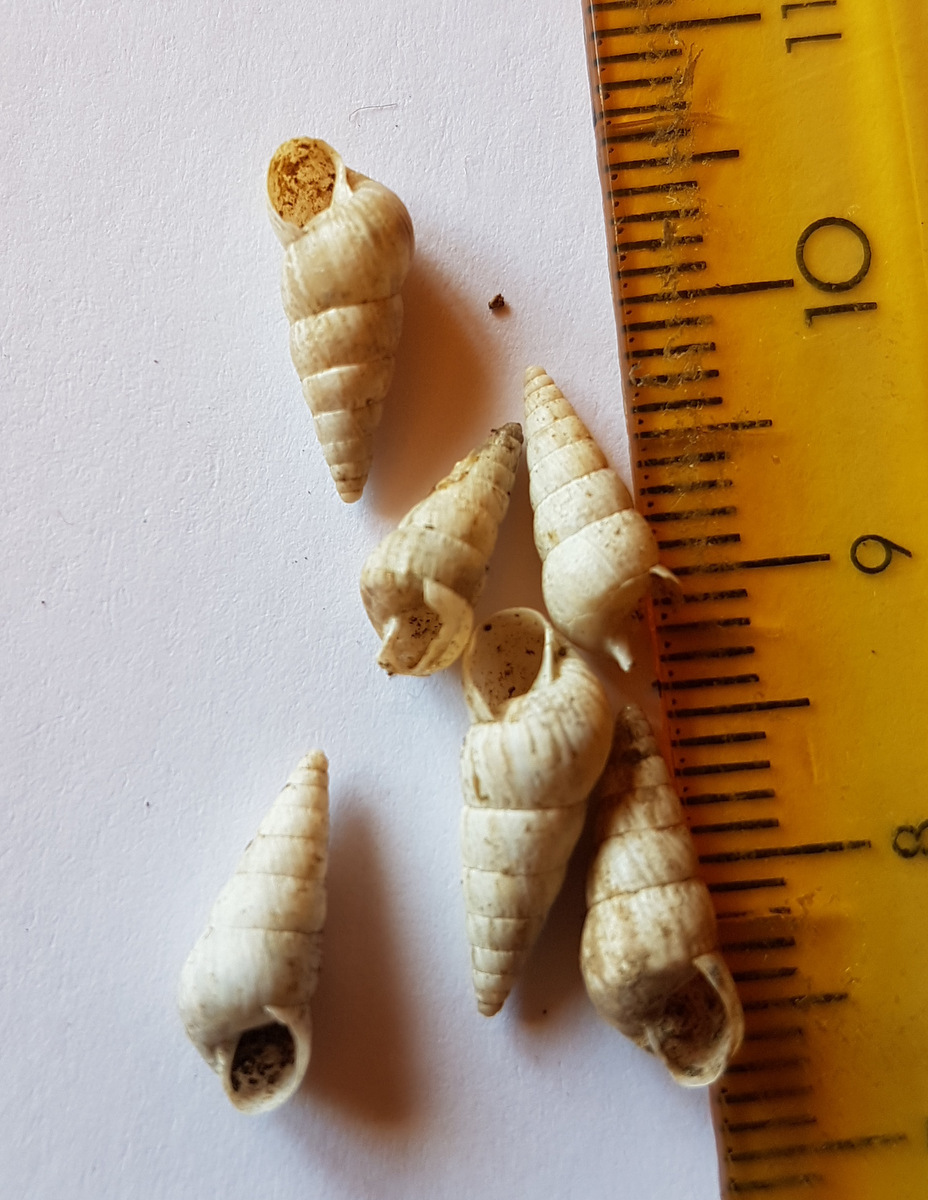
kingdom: Animalia
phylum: Mollusca
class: Gastropoda
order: Stylommatophora
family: Geomitridae
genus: Cochlicella
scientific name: Cochlicella acuta
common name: Pointed snail
